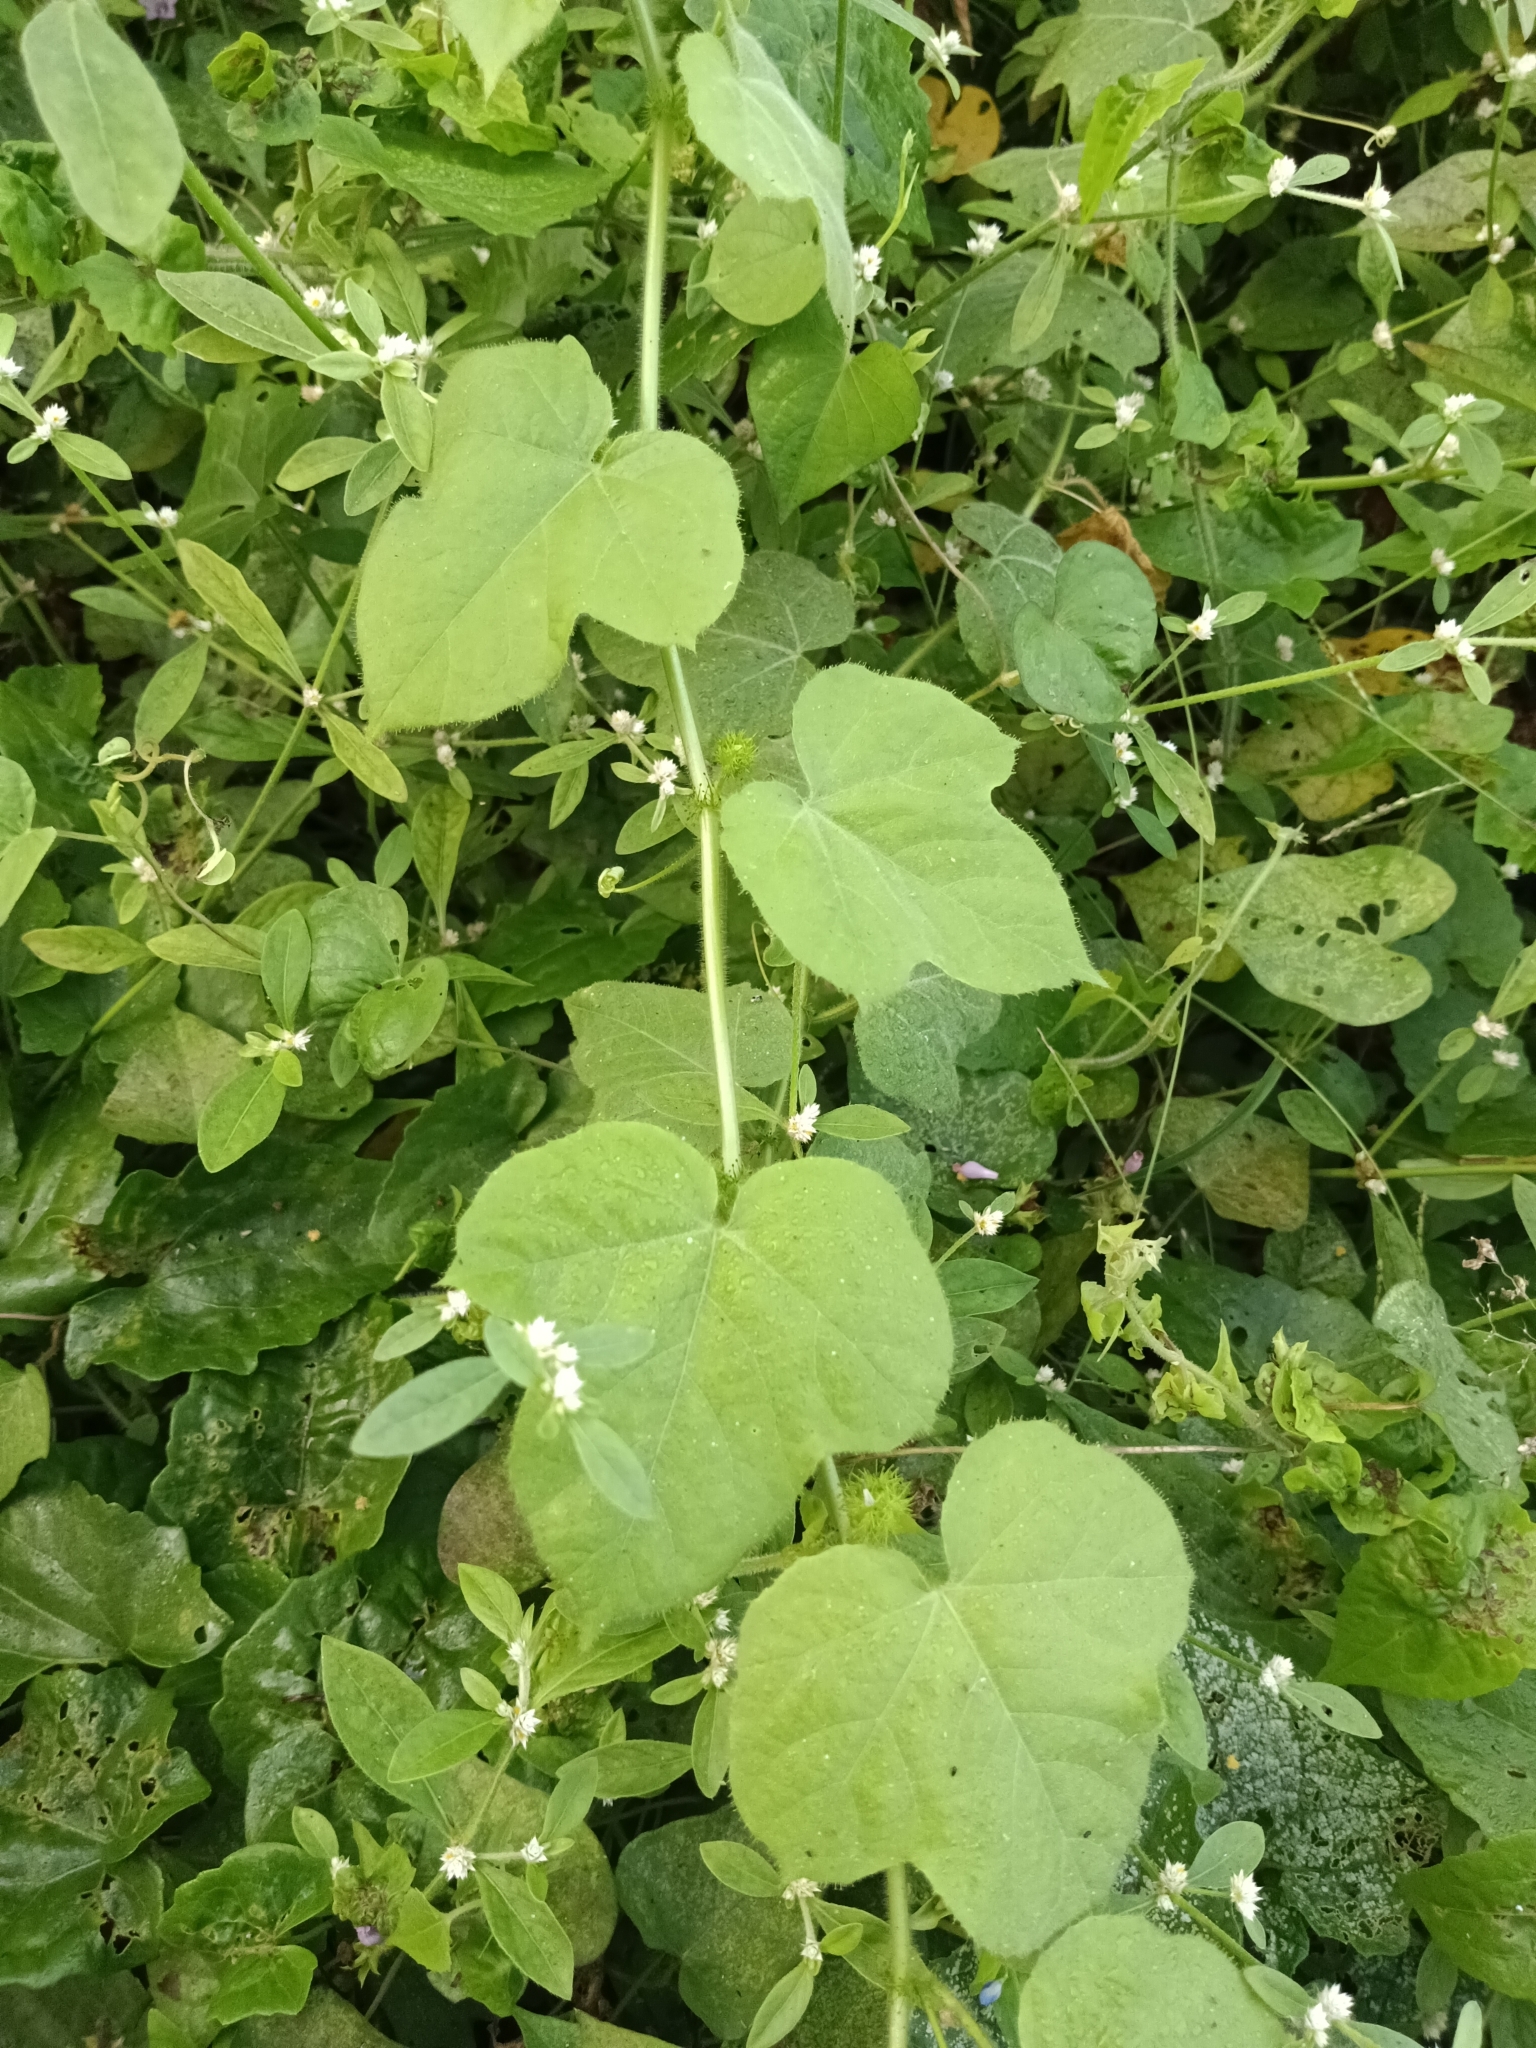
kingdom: Plantae
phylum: Tracheophyta
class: Magnoliopsida
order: Malpighiales
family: Passifloraceae
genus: Passiflora
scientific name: Passiflora vesicaria
